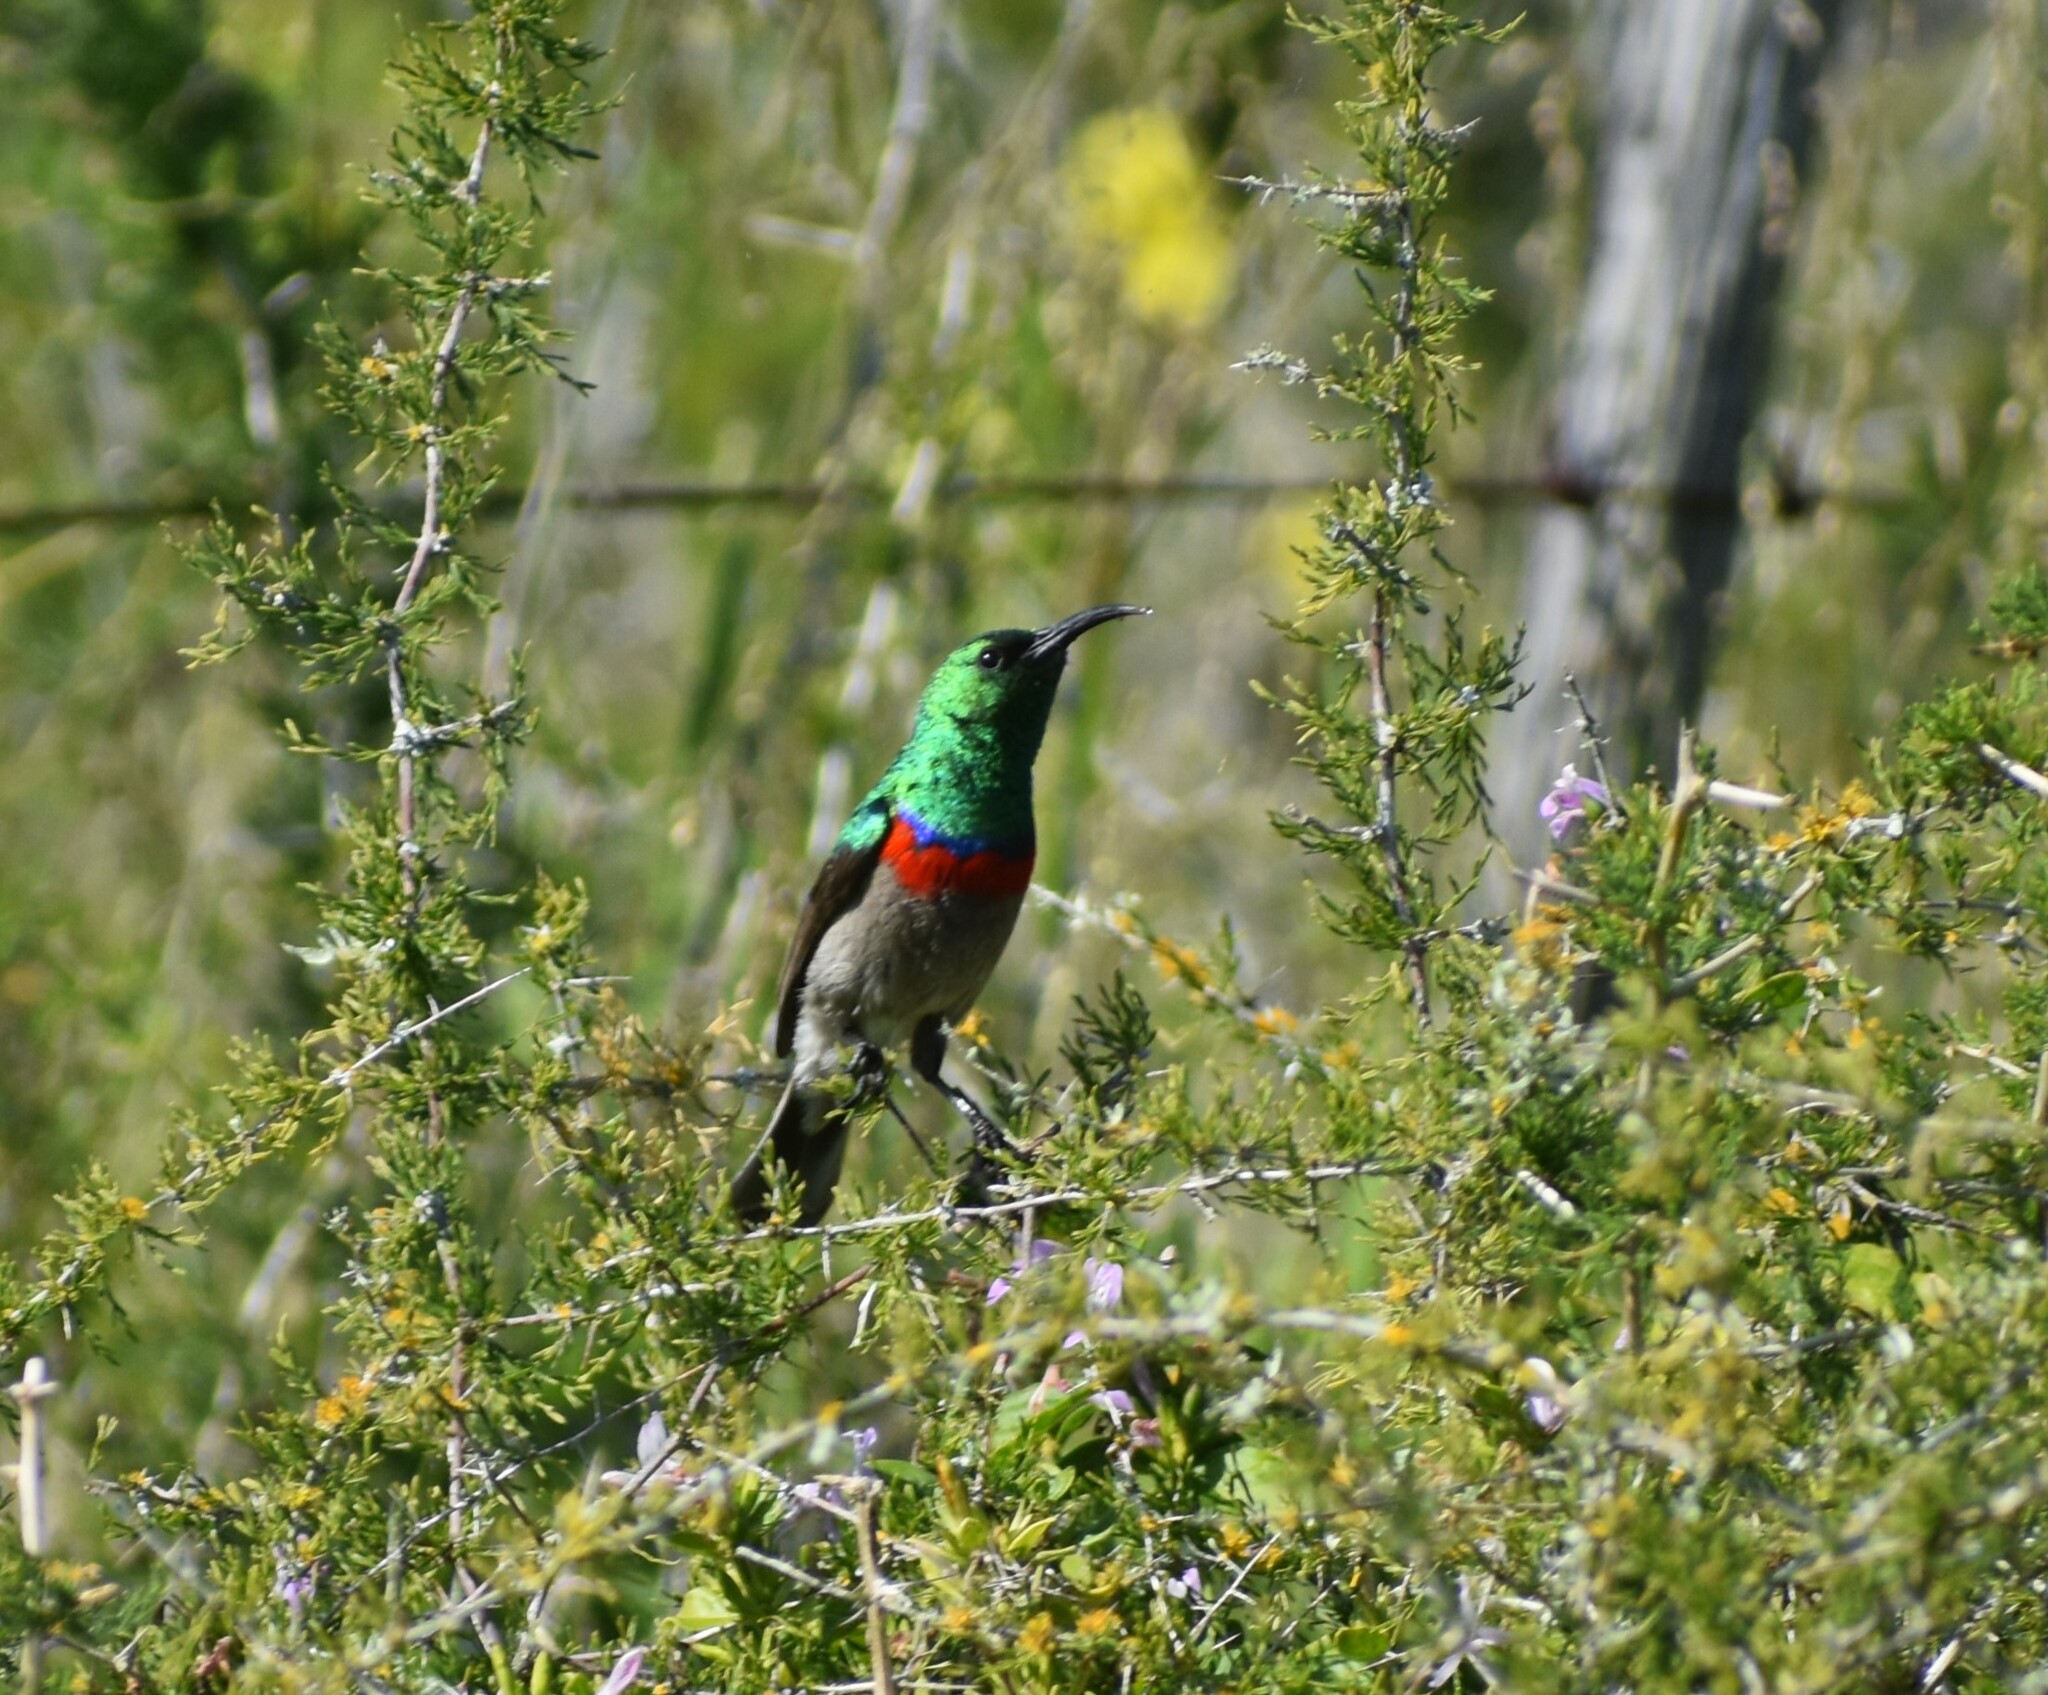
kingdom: Animalia
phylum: Chordata
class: Aves
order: Passeriformes
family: Nectariniidae
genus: Cinnyris
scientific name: Cinnyris chalybeus
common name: Southern double-collared sunbird
